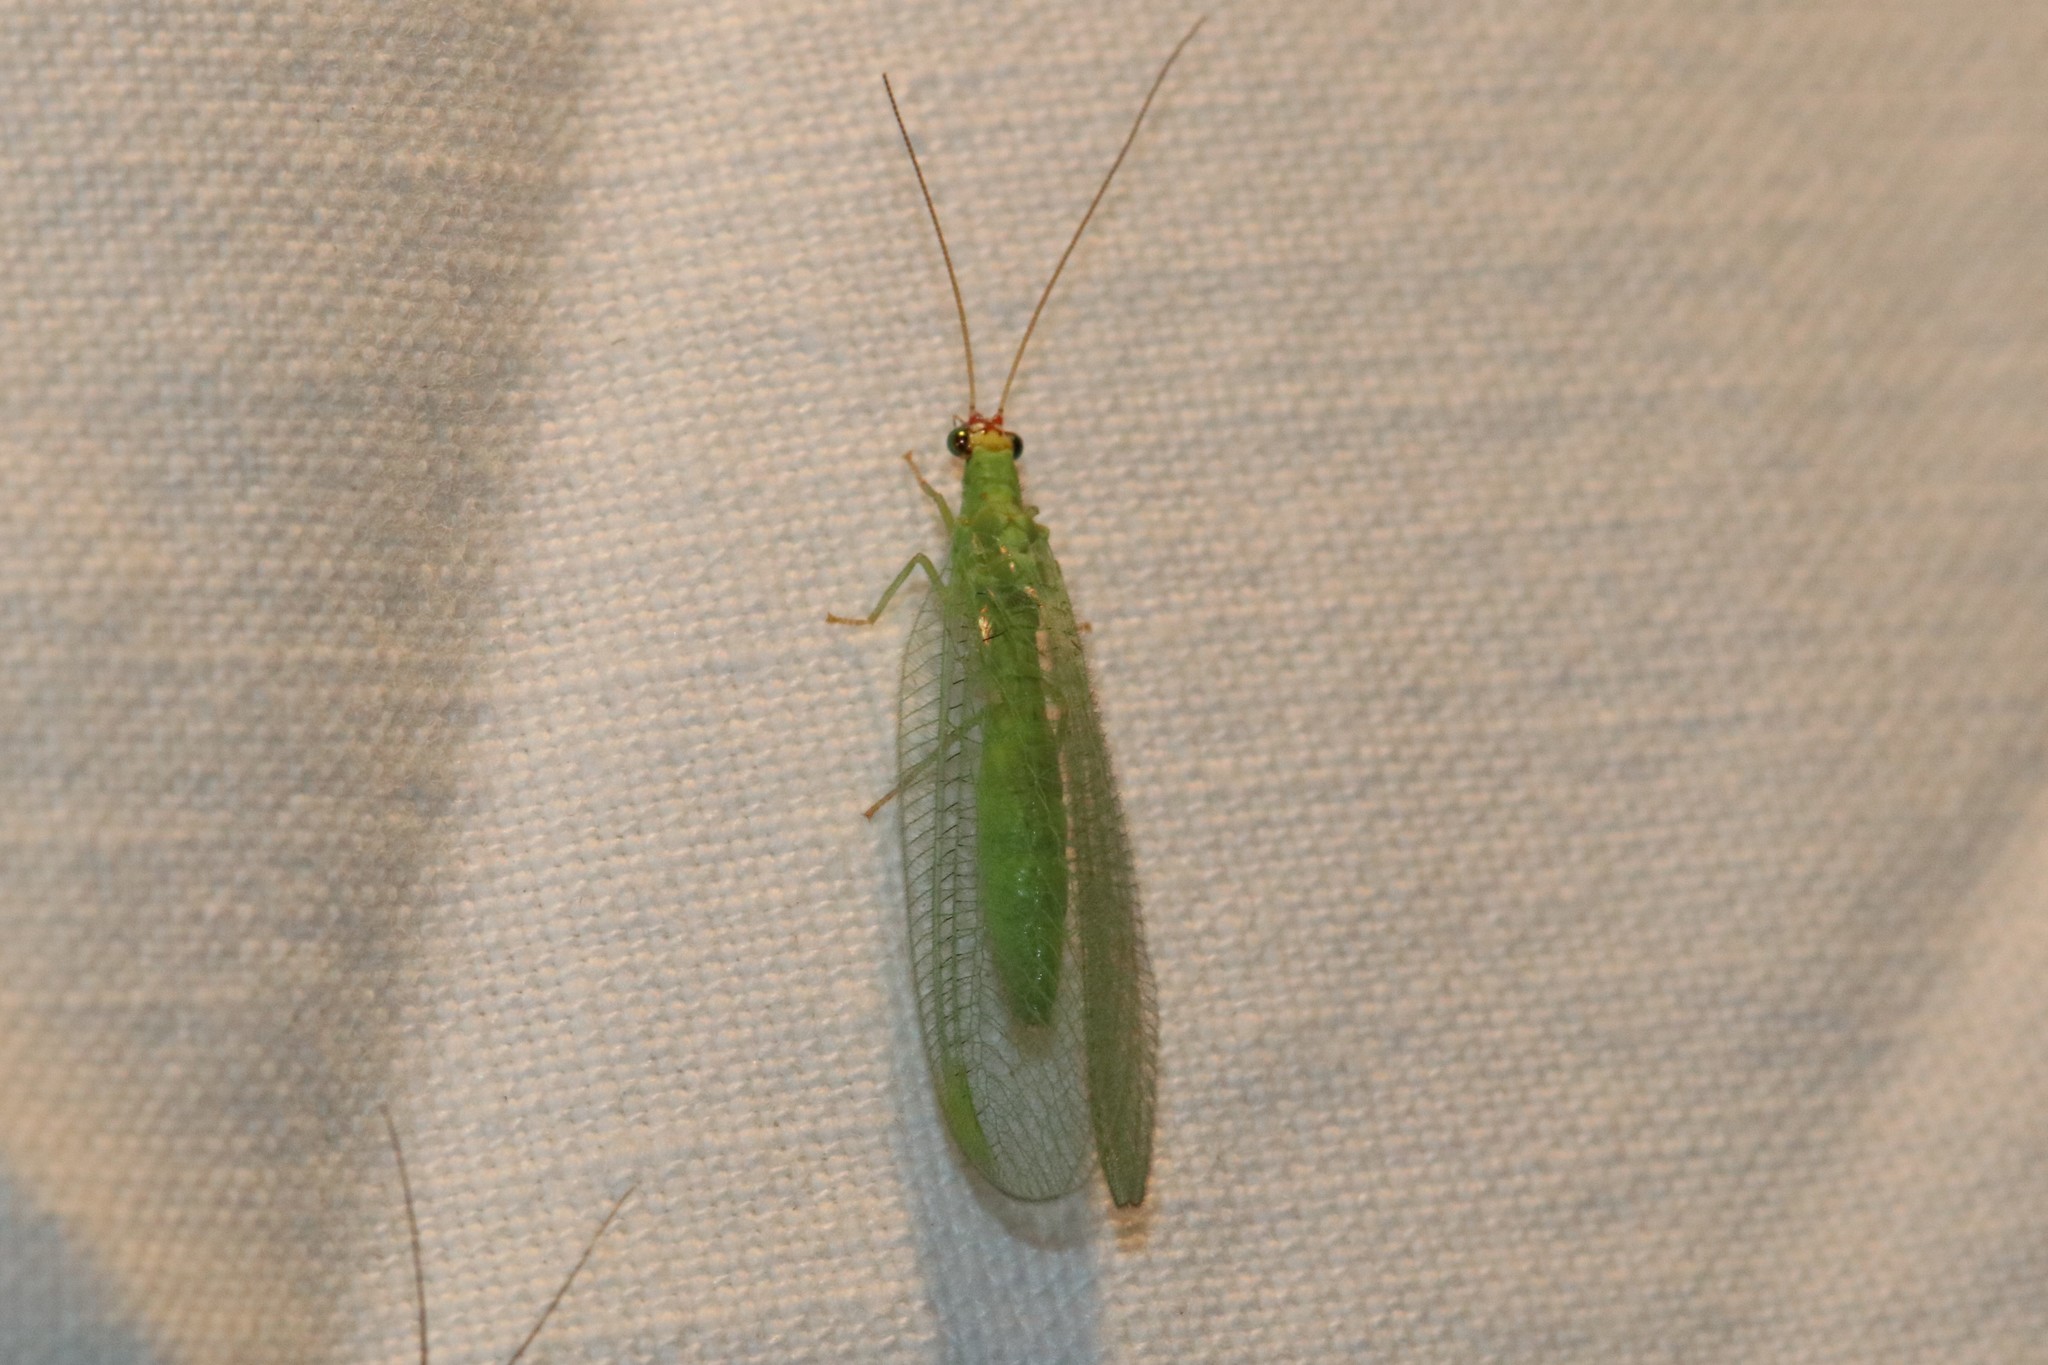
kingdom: Animalia
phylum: Arthropoda
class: Insecta
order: Neuroptera
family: Chrysopidae
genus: Chrysopa
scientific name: Chrysopa oculata
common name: Golden-eyed lacewing
